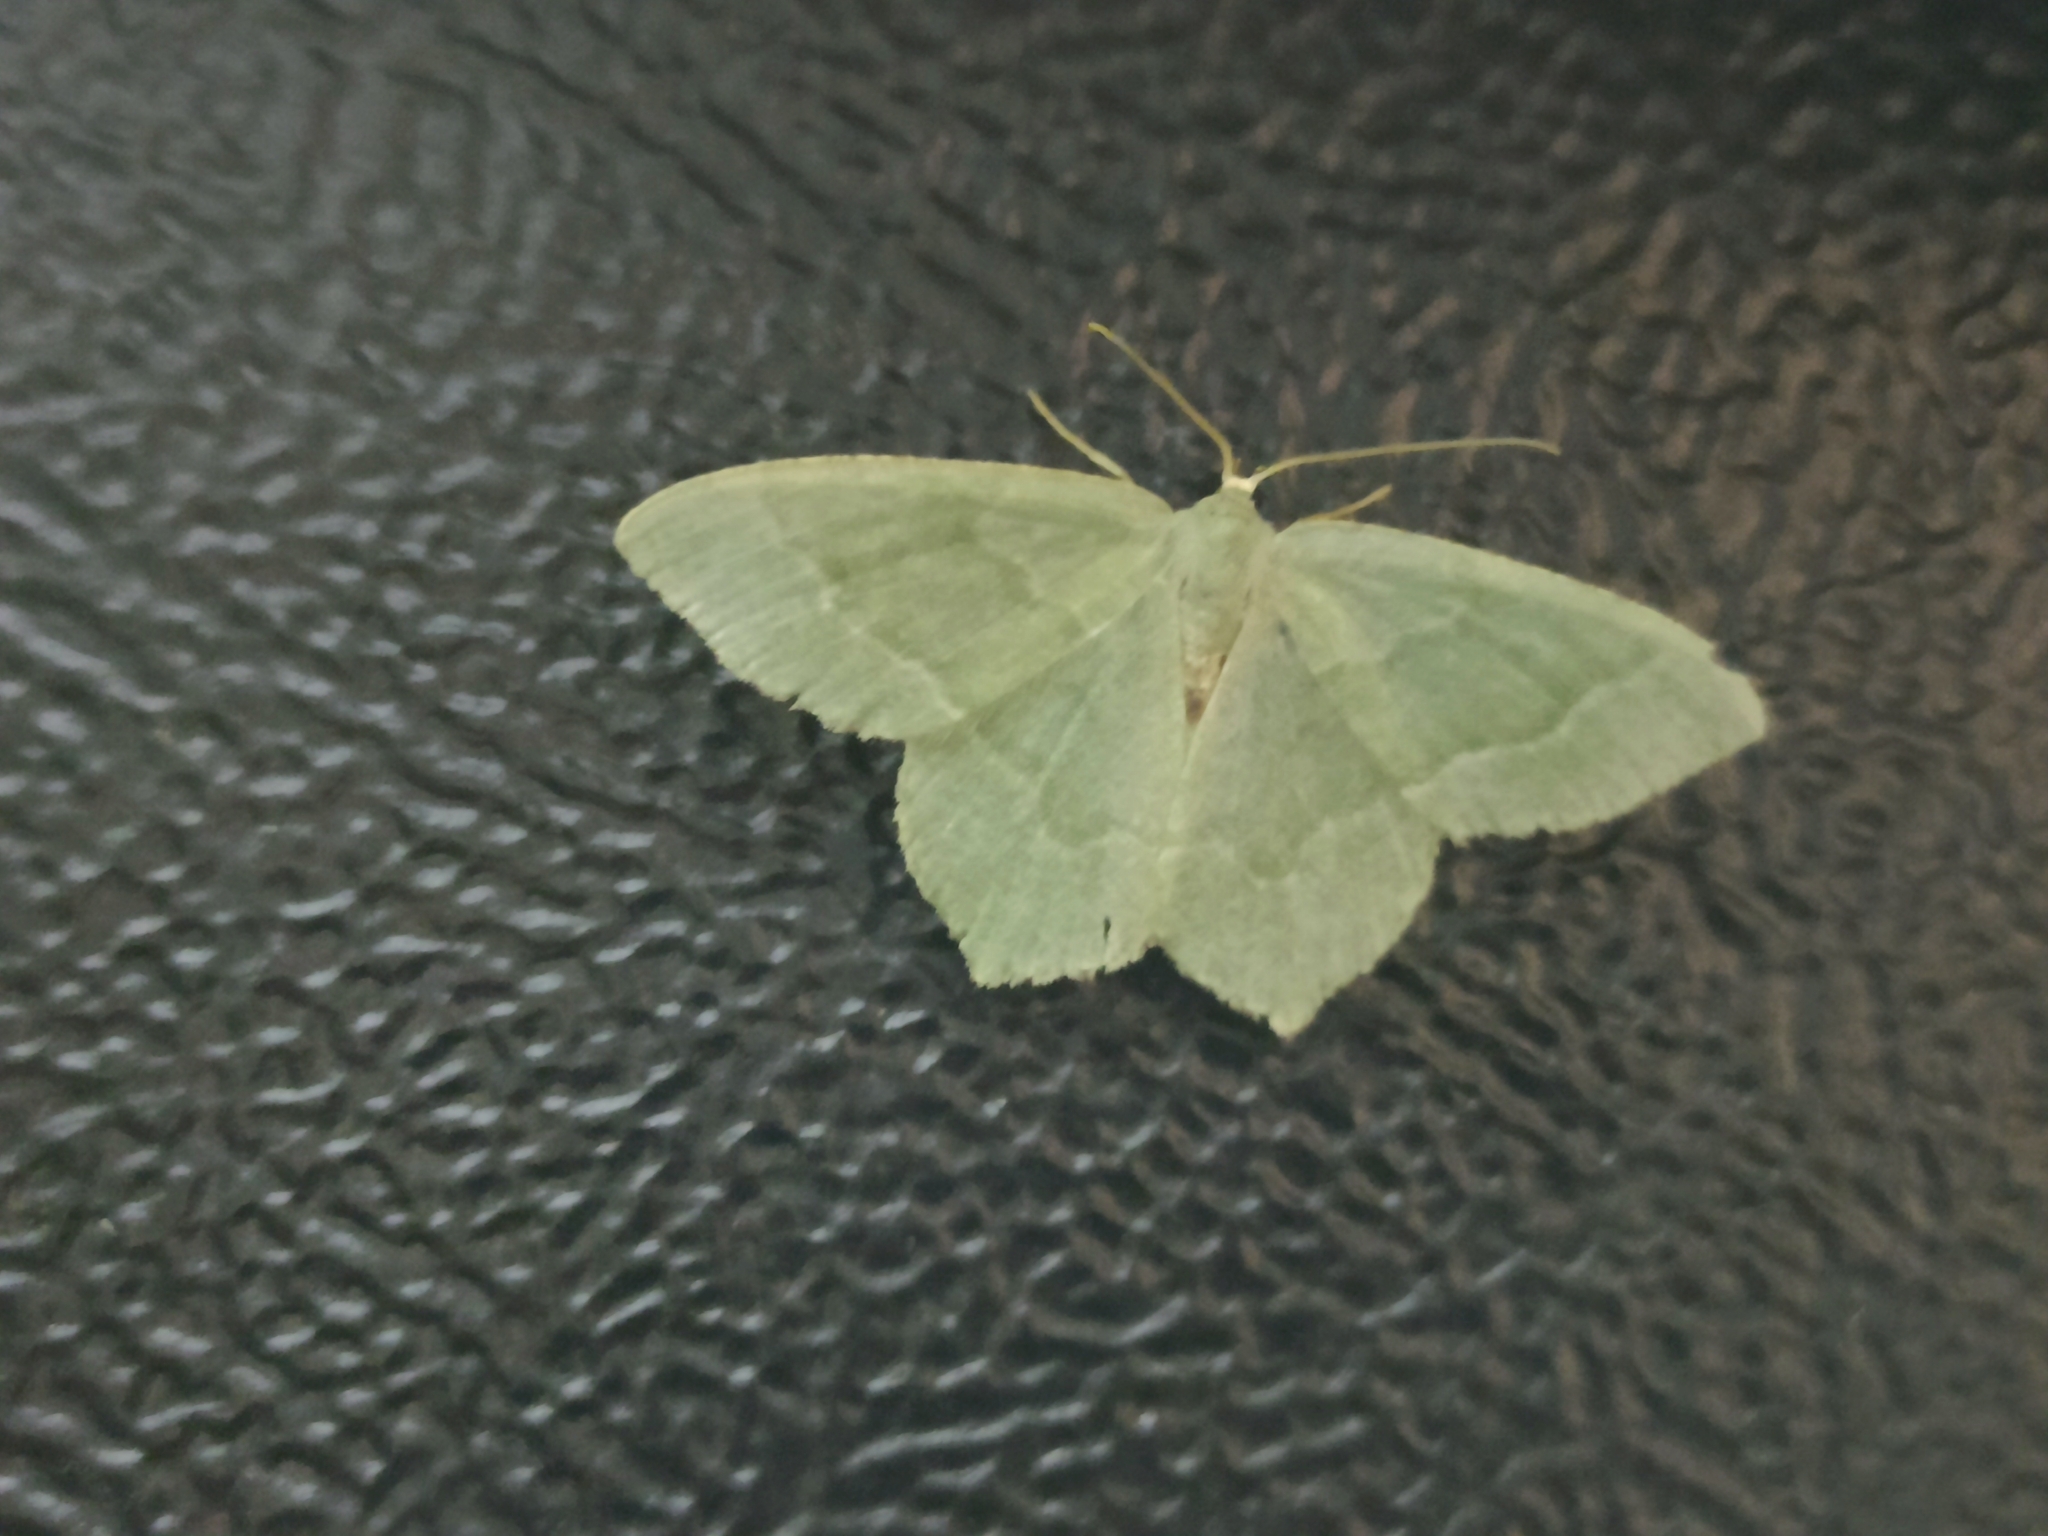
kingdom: Animalia
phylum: Arthropoda
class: Insecta
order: Lepidoptera
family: Geometridae
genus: Hemithea
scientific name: Hemithea aestivaria
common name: Common emerald
